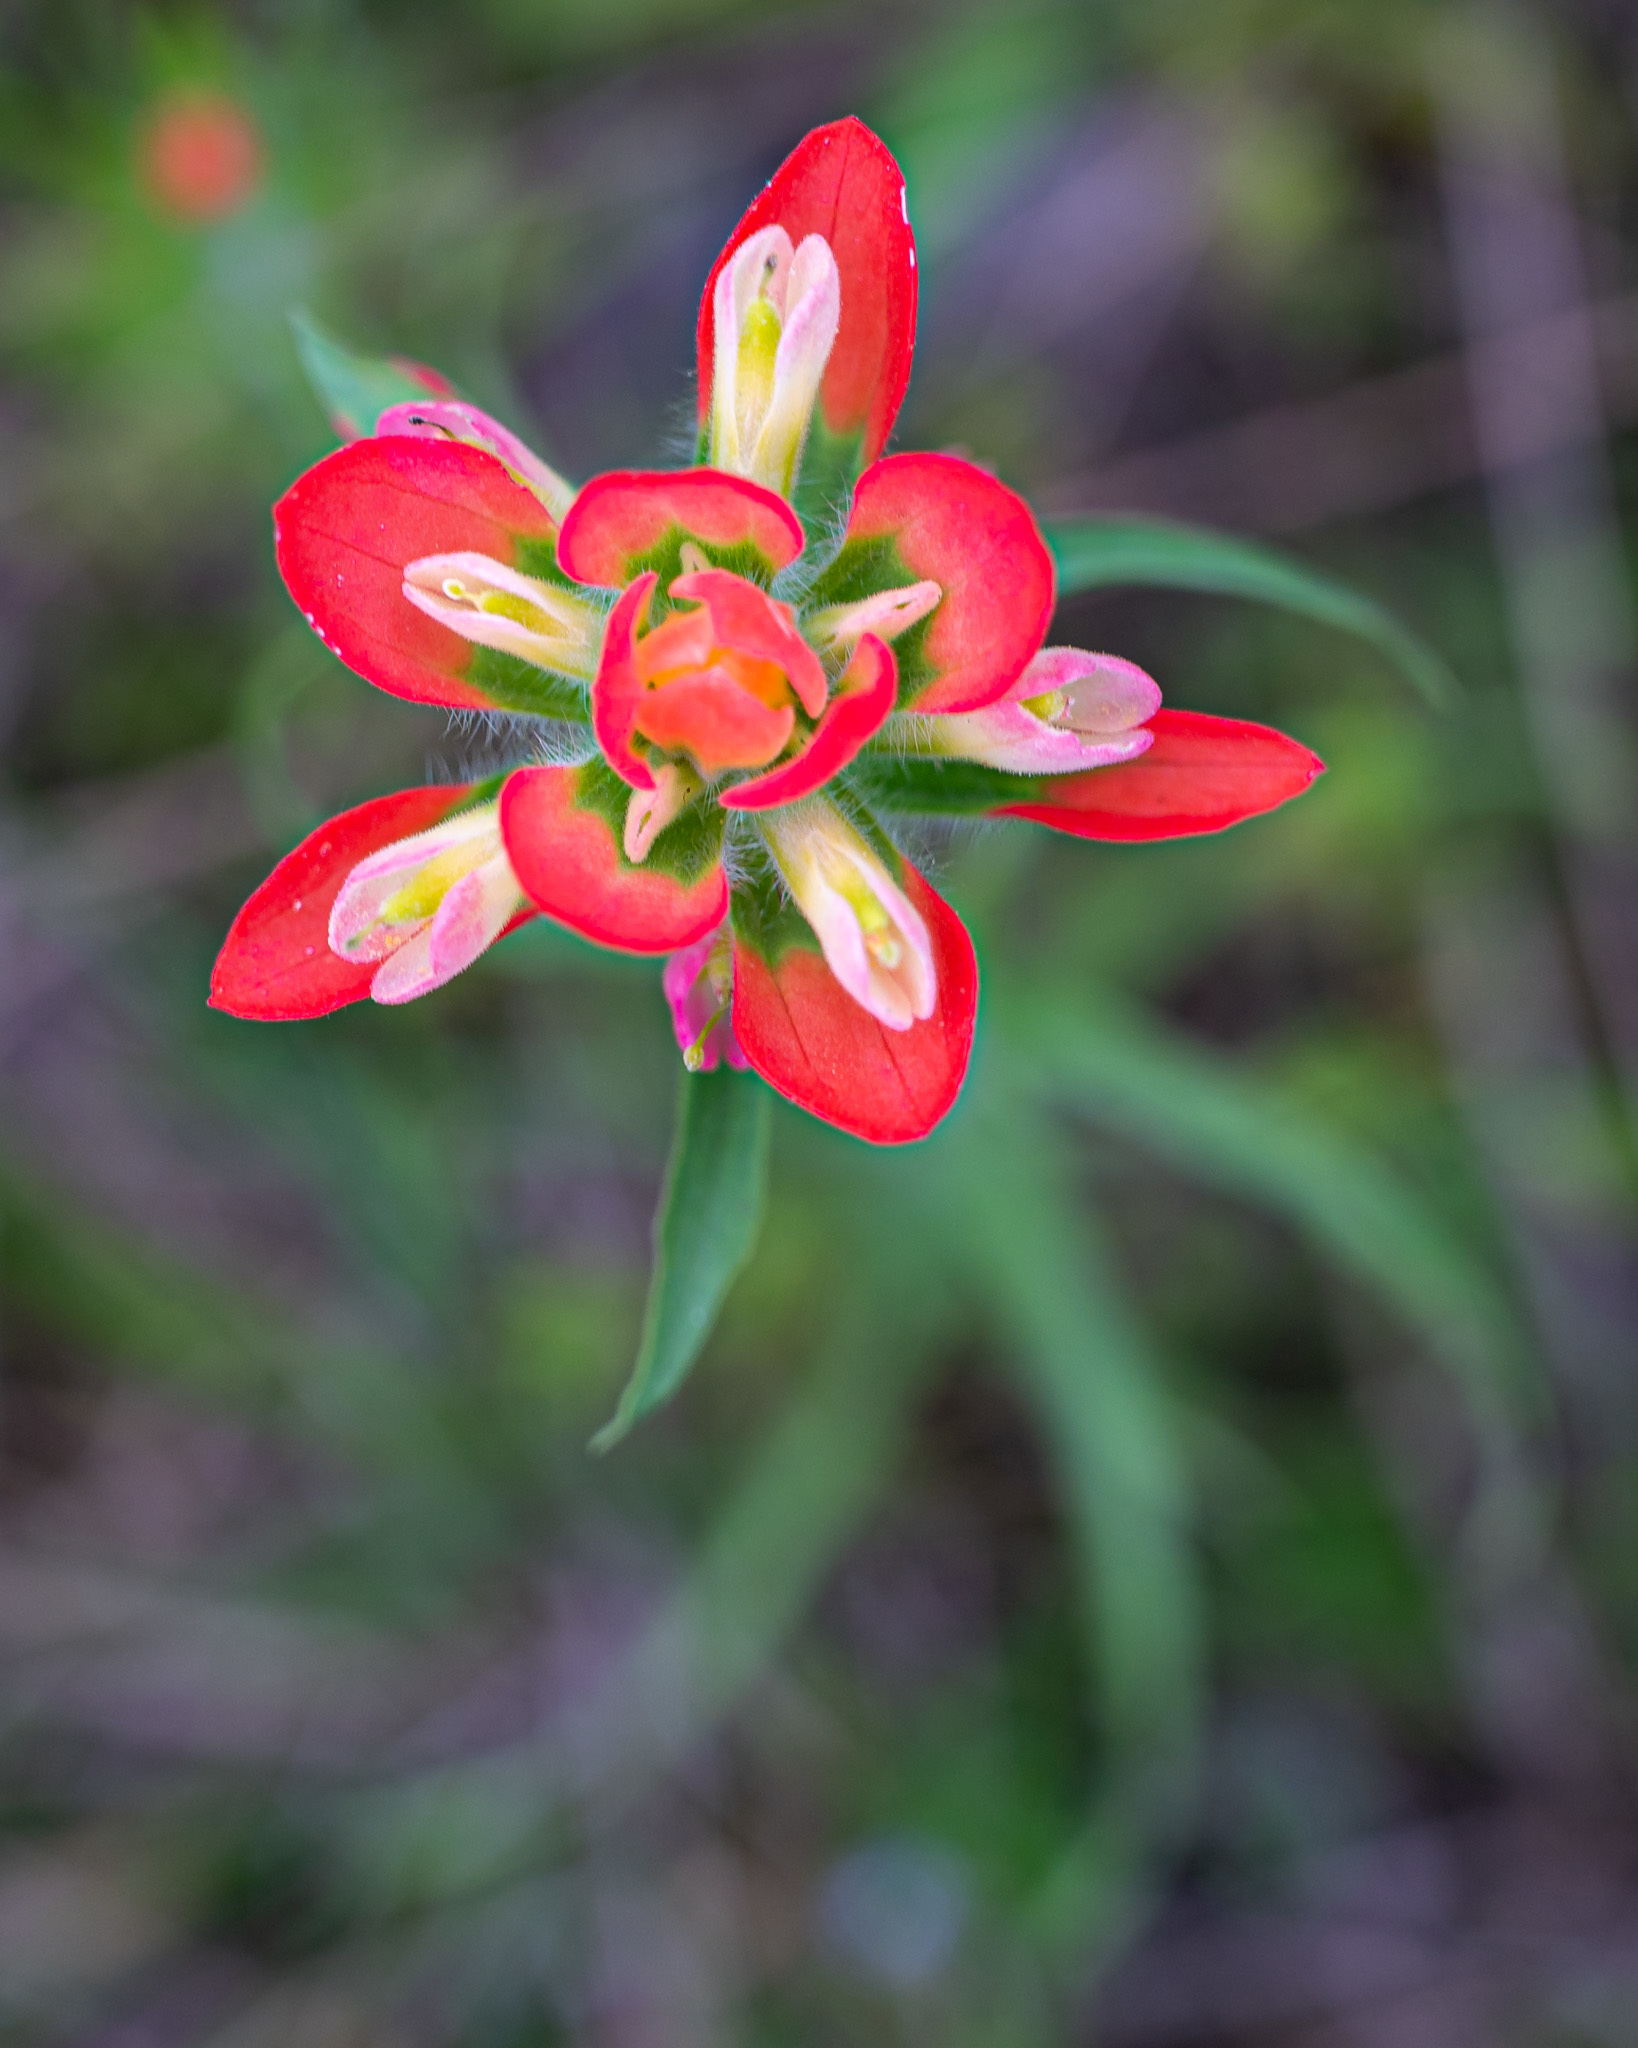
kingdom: Plantae
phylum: Tracheophyta
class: Magnoliopsida
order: Lamiales
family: Orobanchaceae
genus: Castilleja
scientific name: Castilleja indivisa
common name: Texas paintbrush
